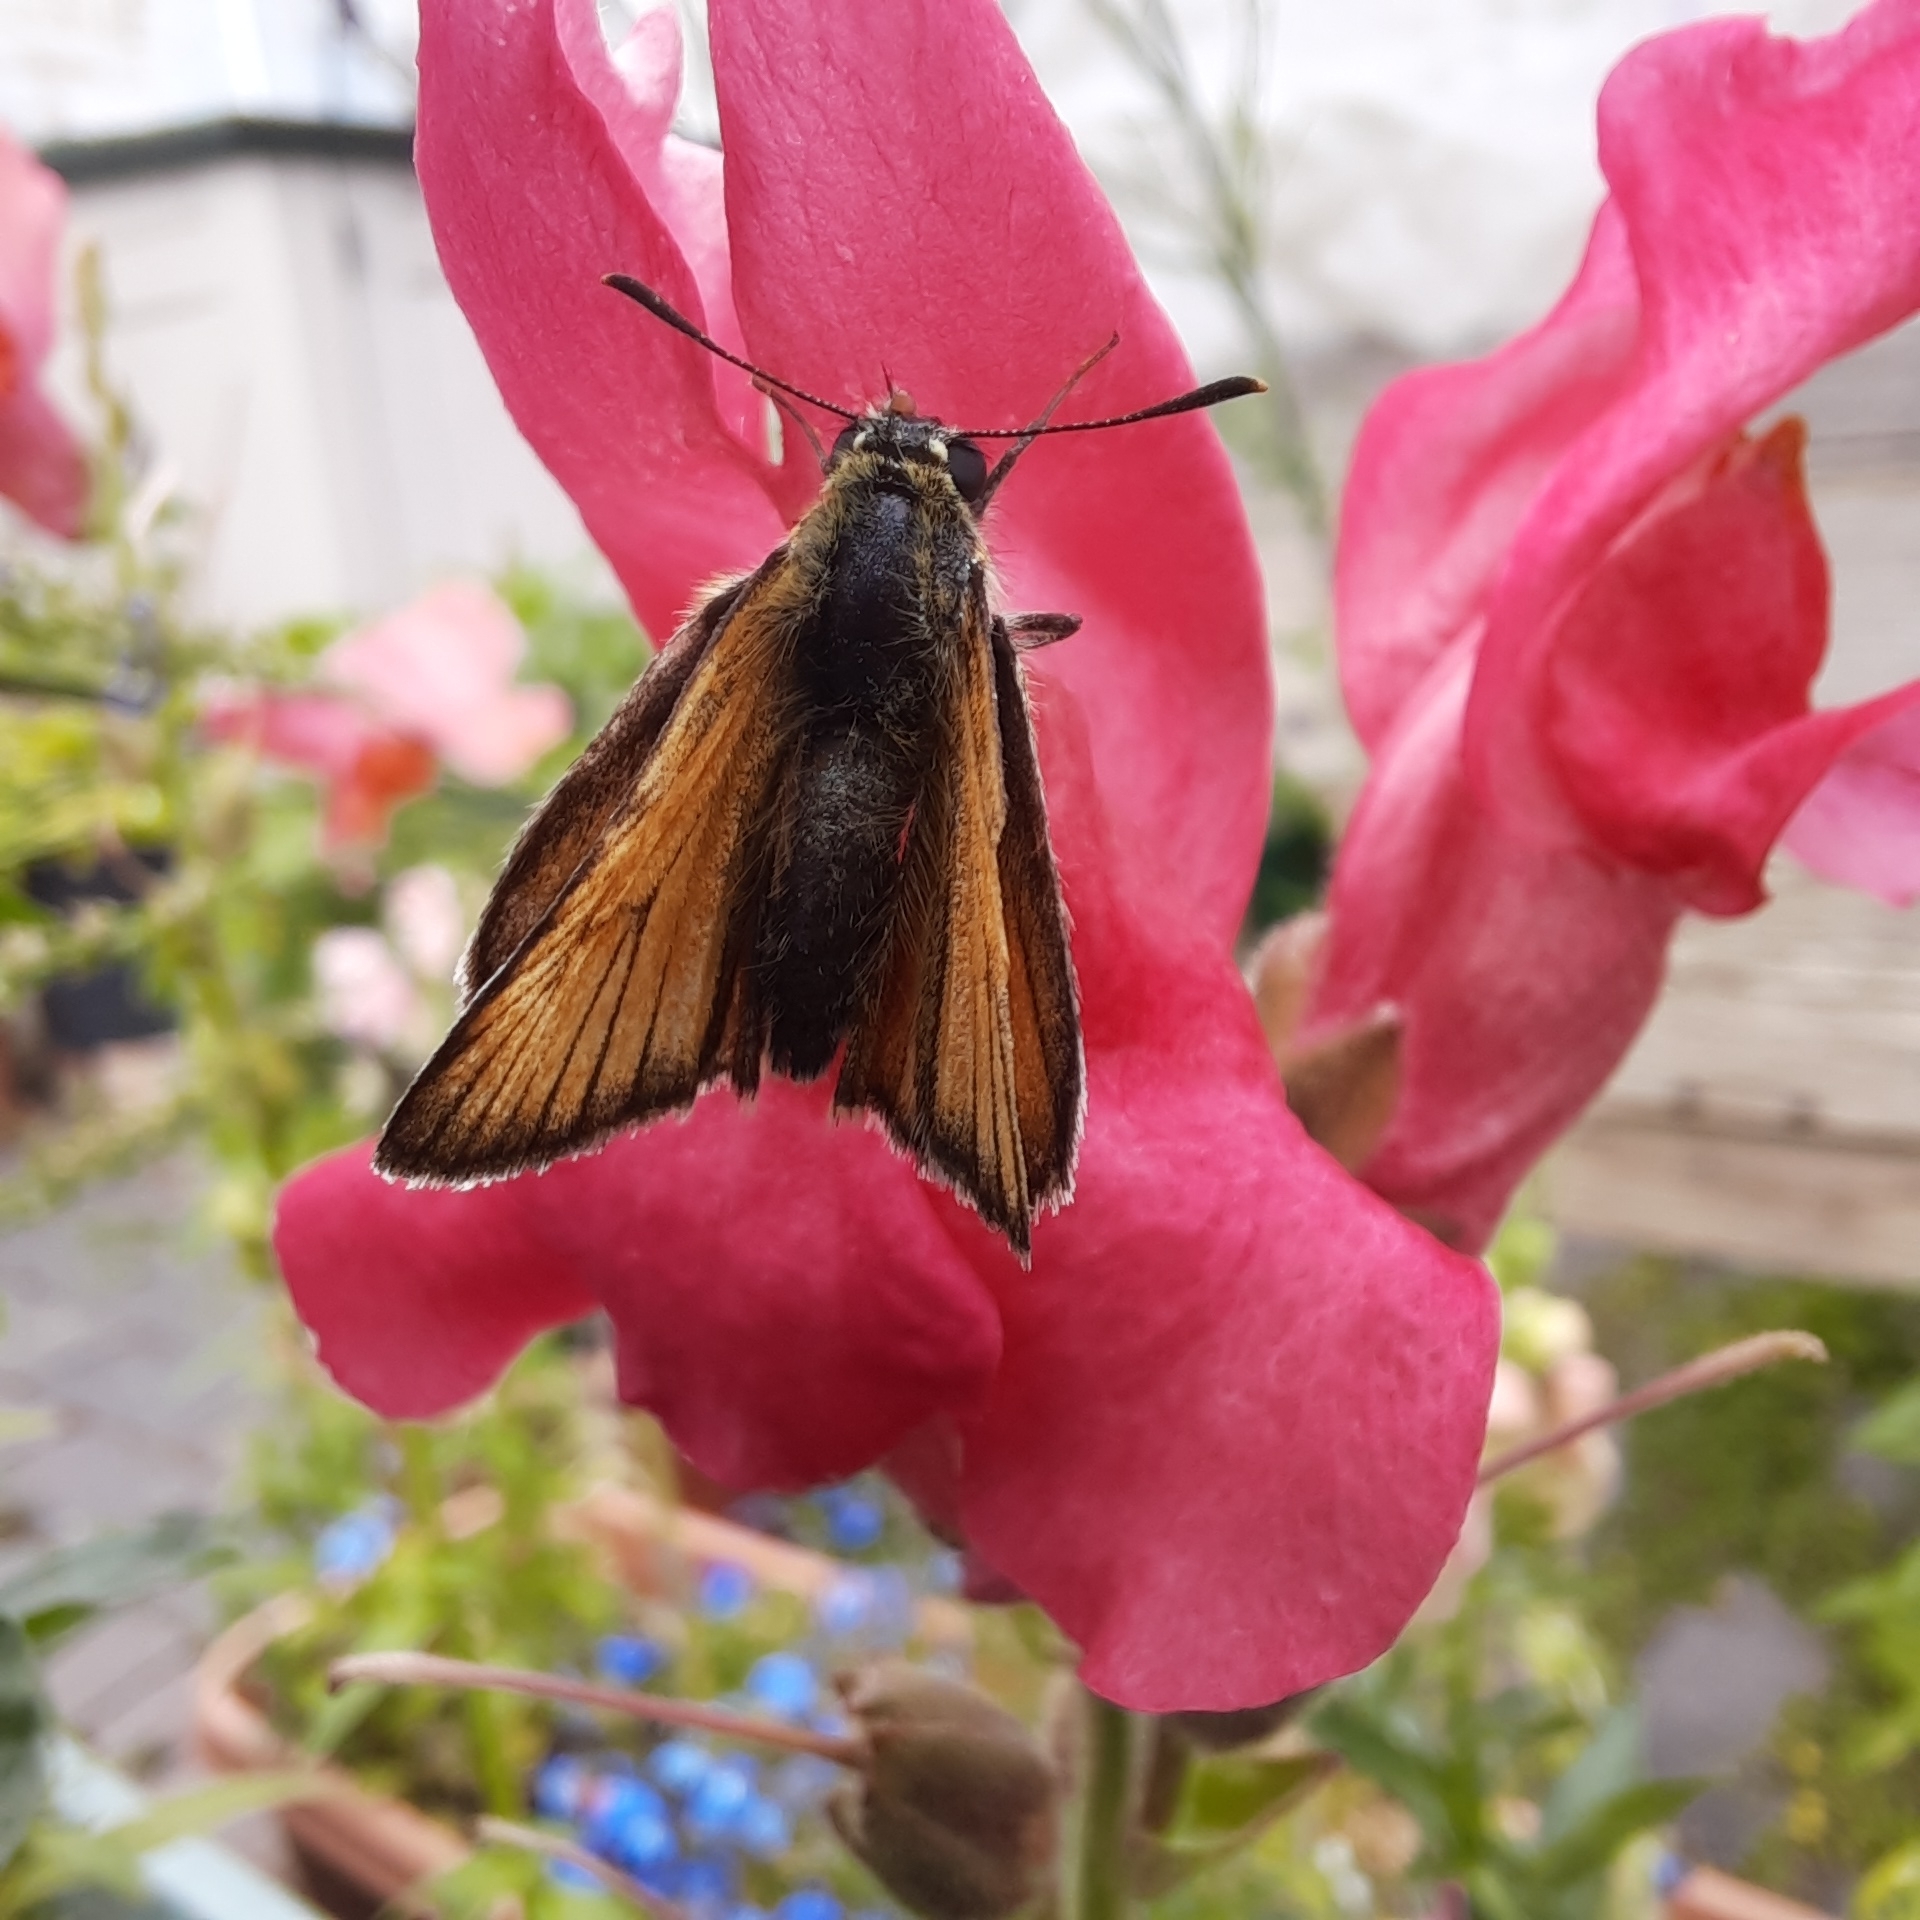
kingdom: Animalia
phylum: Arthropoda
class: Insecta
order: Lepidoptera
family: Hesperiidae
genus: Thymelicus
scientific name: Thymelicus sylvestris
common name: Small skipper
